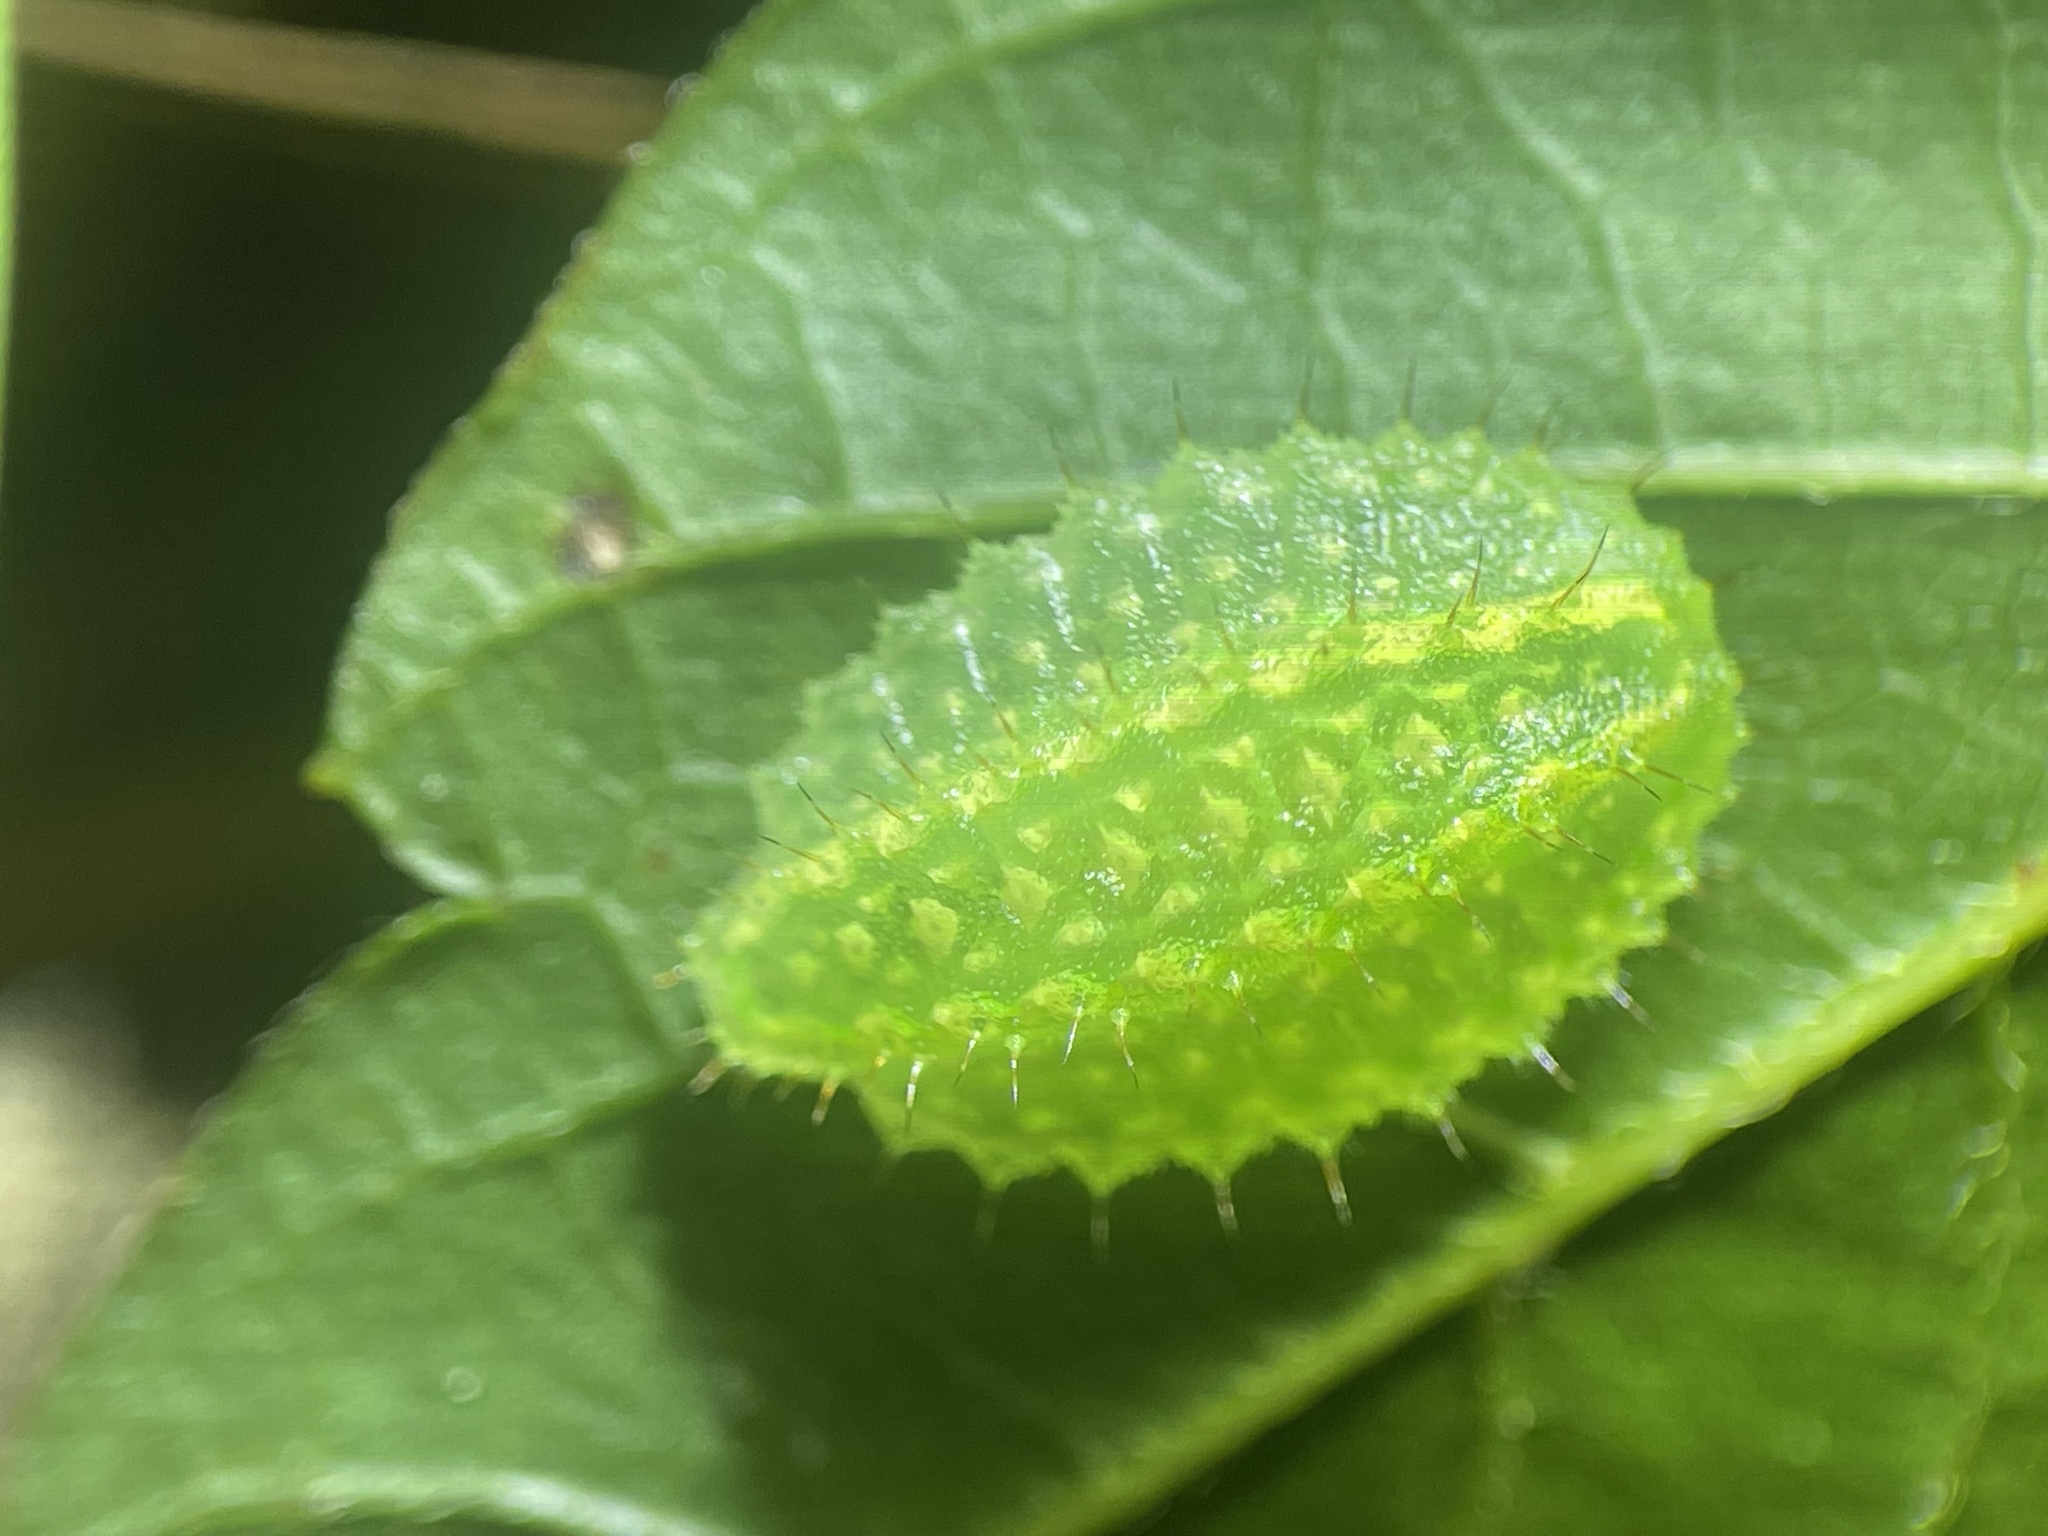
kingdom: Animalia
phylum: Arthropoda
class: Insecta
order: Lepidoptera
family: Limacodidae
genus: Lithacodes
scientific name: Lithacodes fasciola
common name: Yellow-shouldered slug moth
